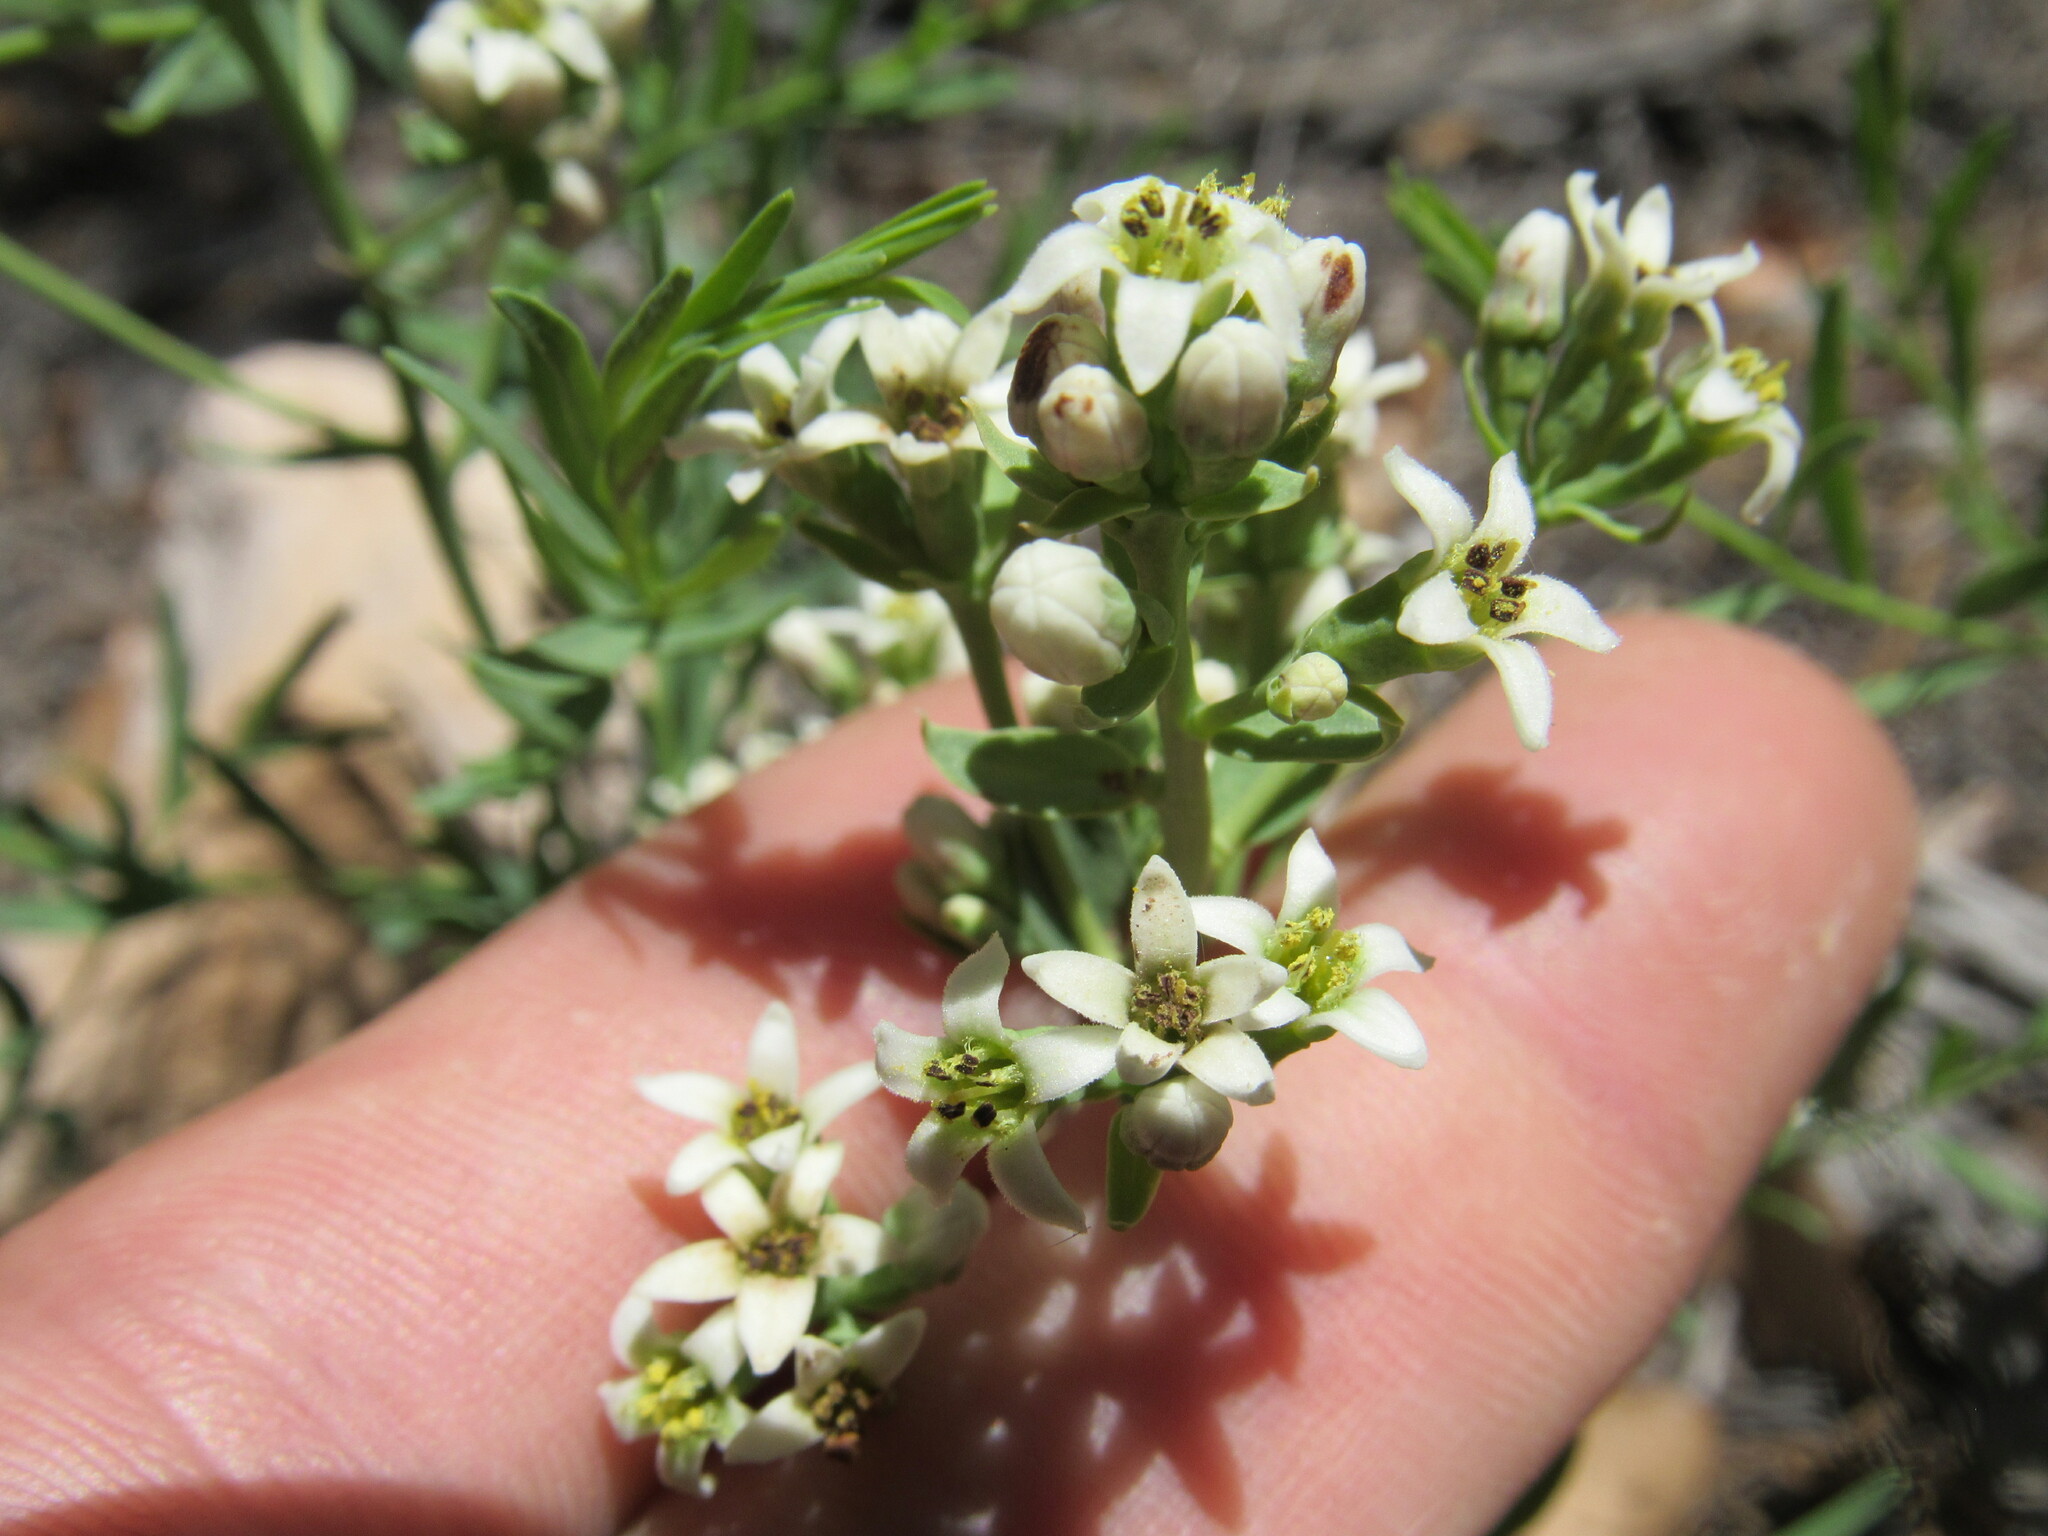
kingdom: Plantae
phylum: Tracheophyta
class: Magnoliopsida
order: Santalales
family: Comandraceae
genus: Comandra
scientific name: Comandra umbellata
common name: Bastard toadflax
